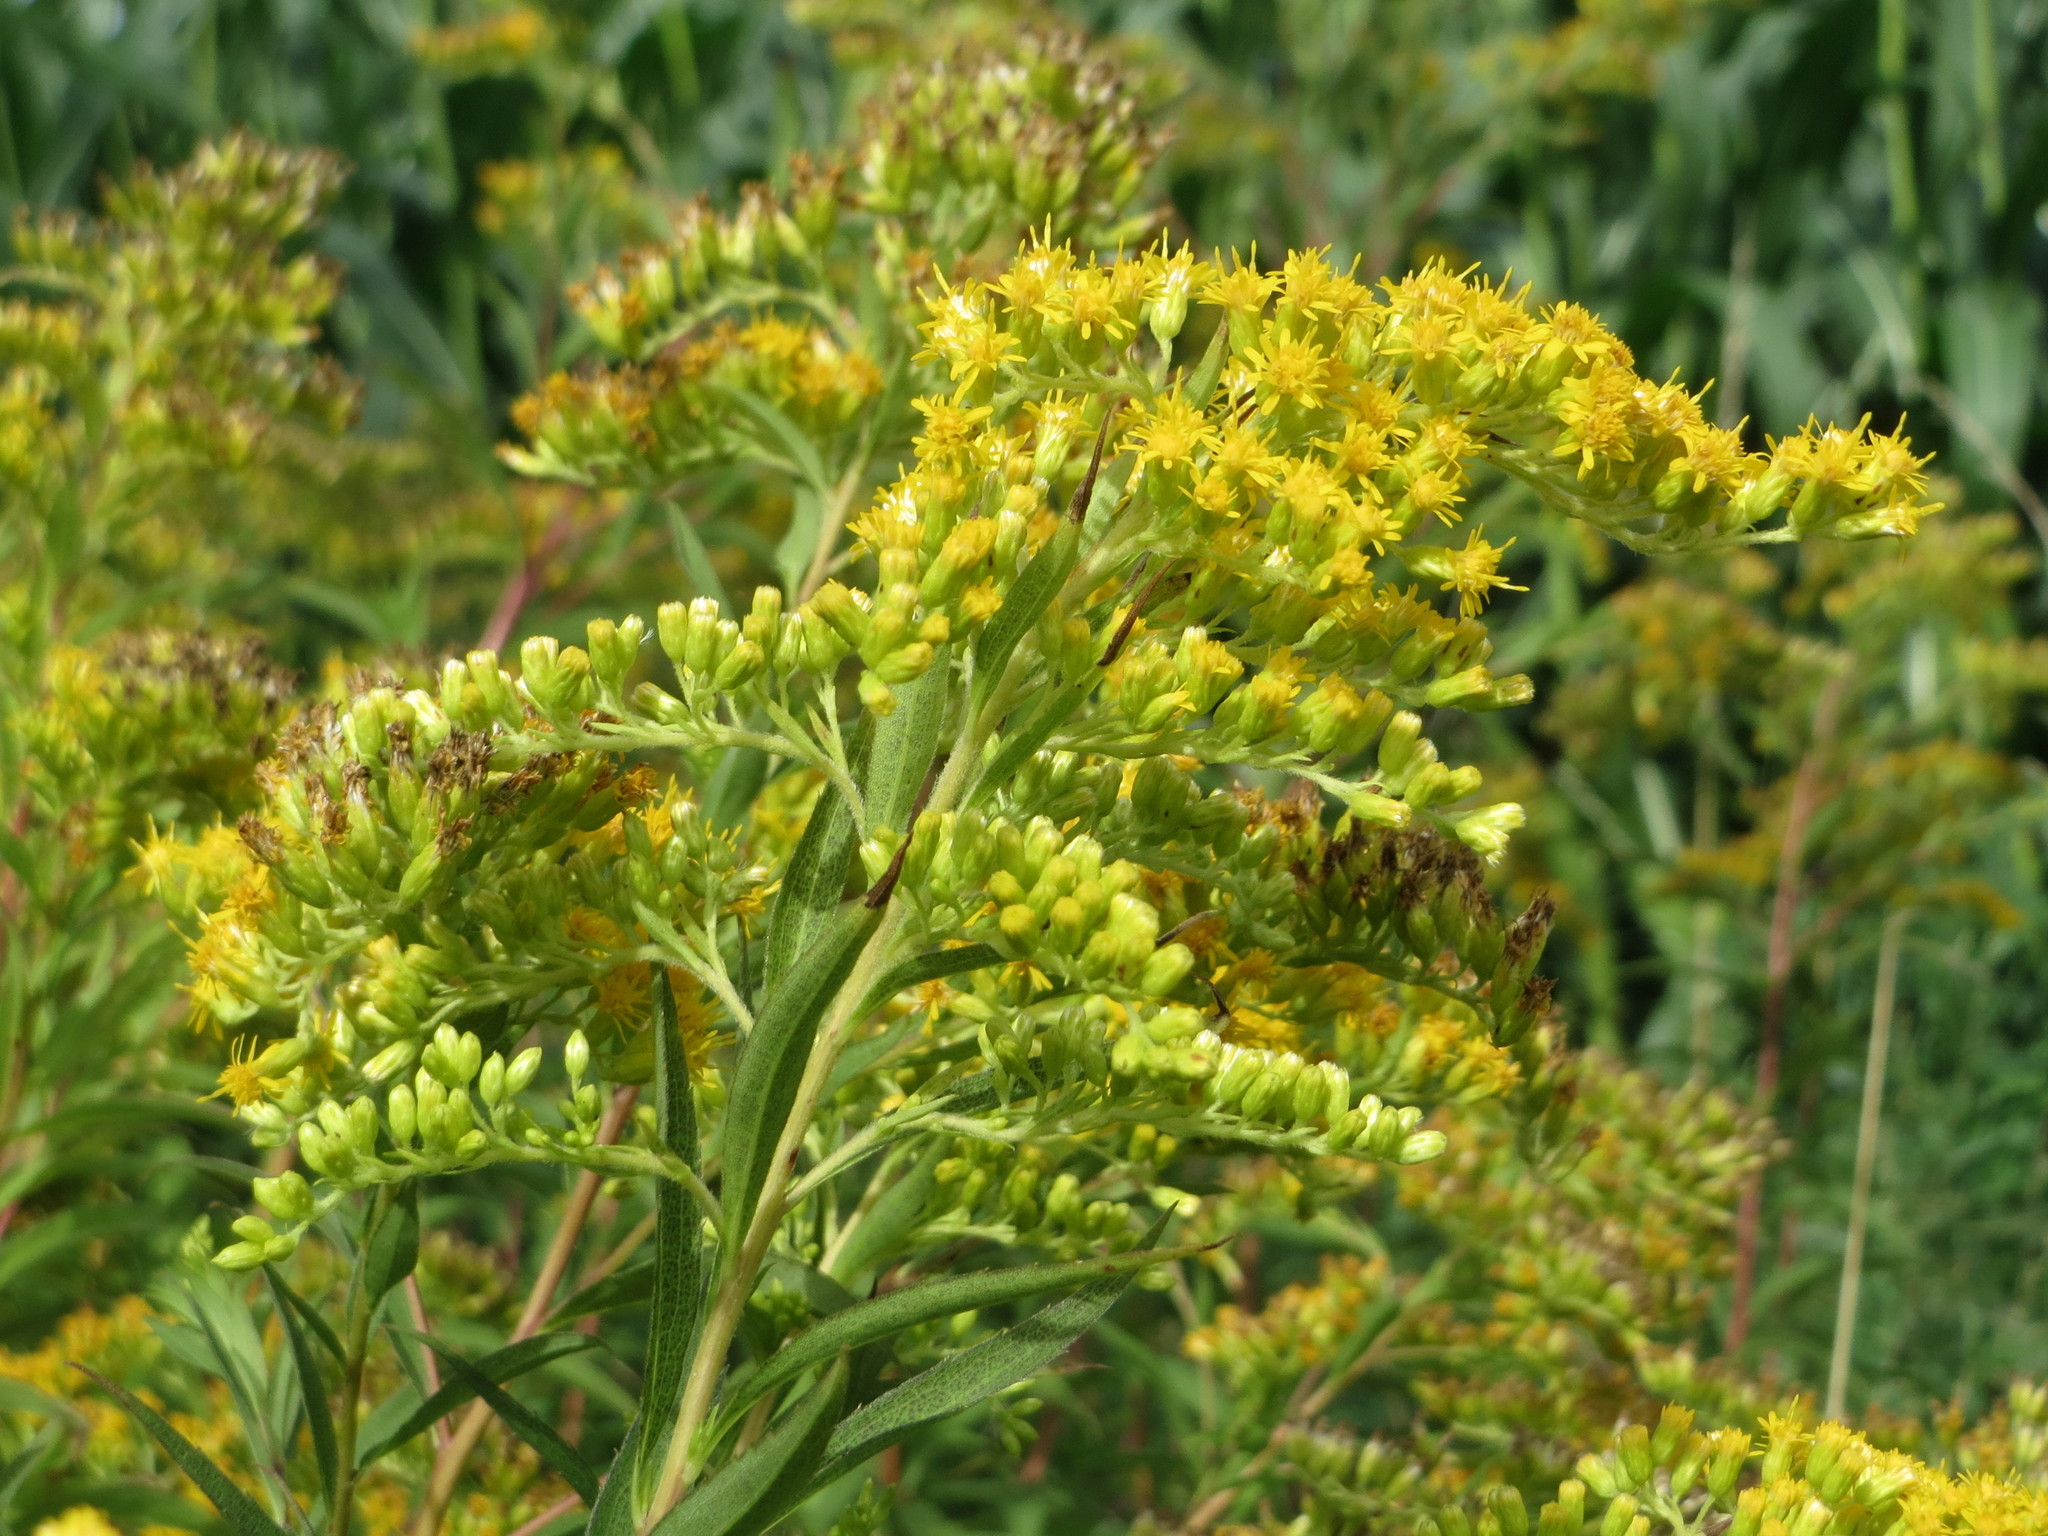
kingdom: Plantae
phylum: Tracheophyta
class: Magnoliopsida
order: Asterales
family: Asteraceae
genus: Solidago
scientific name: Solidago canadensis
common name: Canada goldenrod
